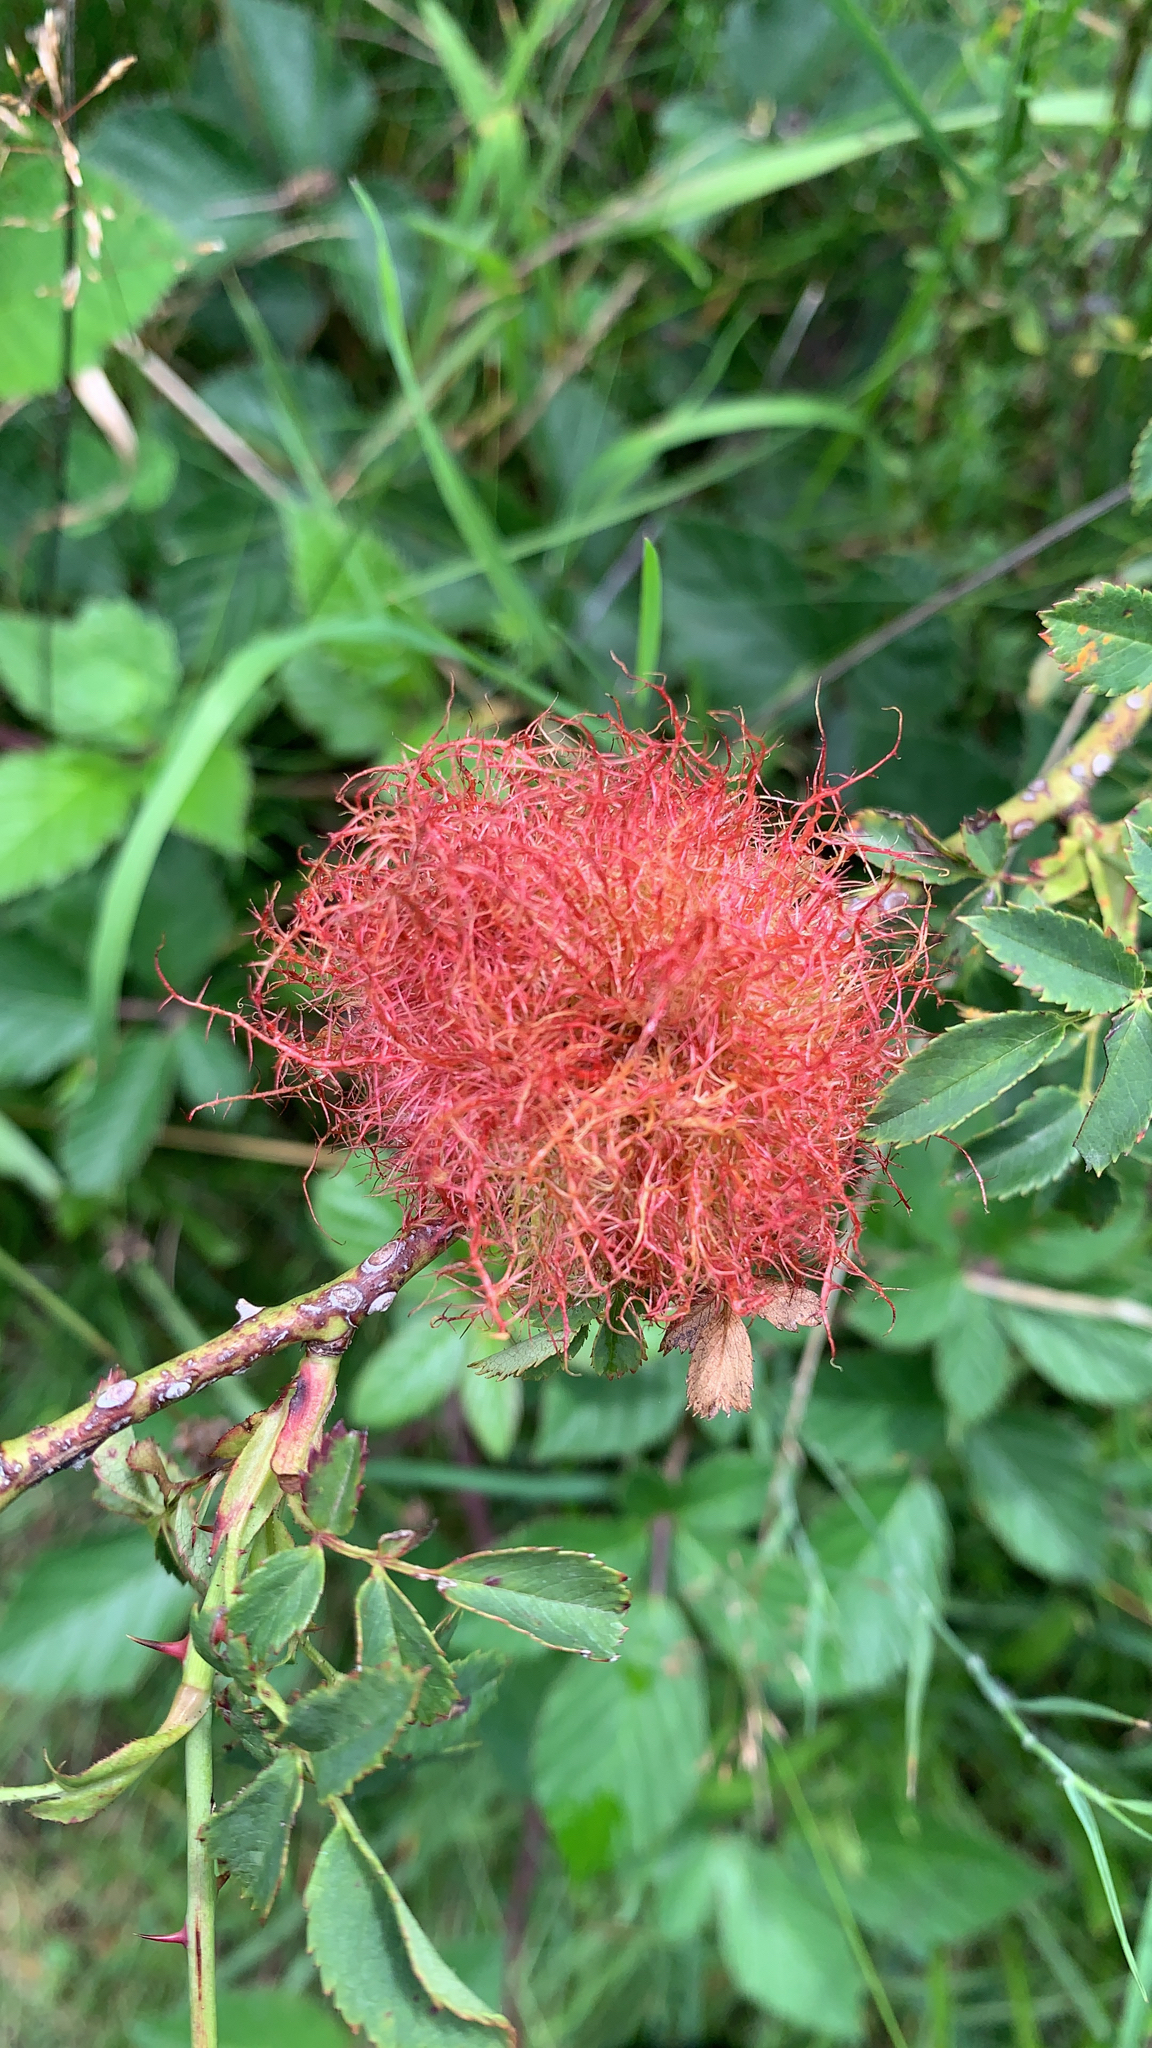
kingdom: Animalia
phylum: Arthropoda
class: Insecta
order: Hymenoptera
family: Cynipidae
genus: Diplolepis
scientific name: Diplolepis rosae
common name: Bedeguar gall
